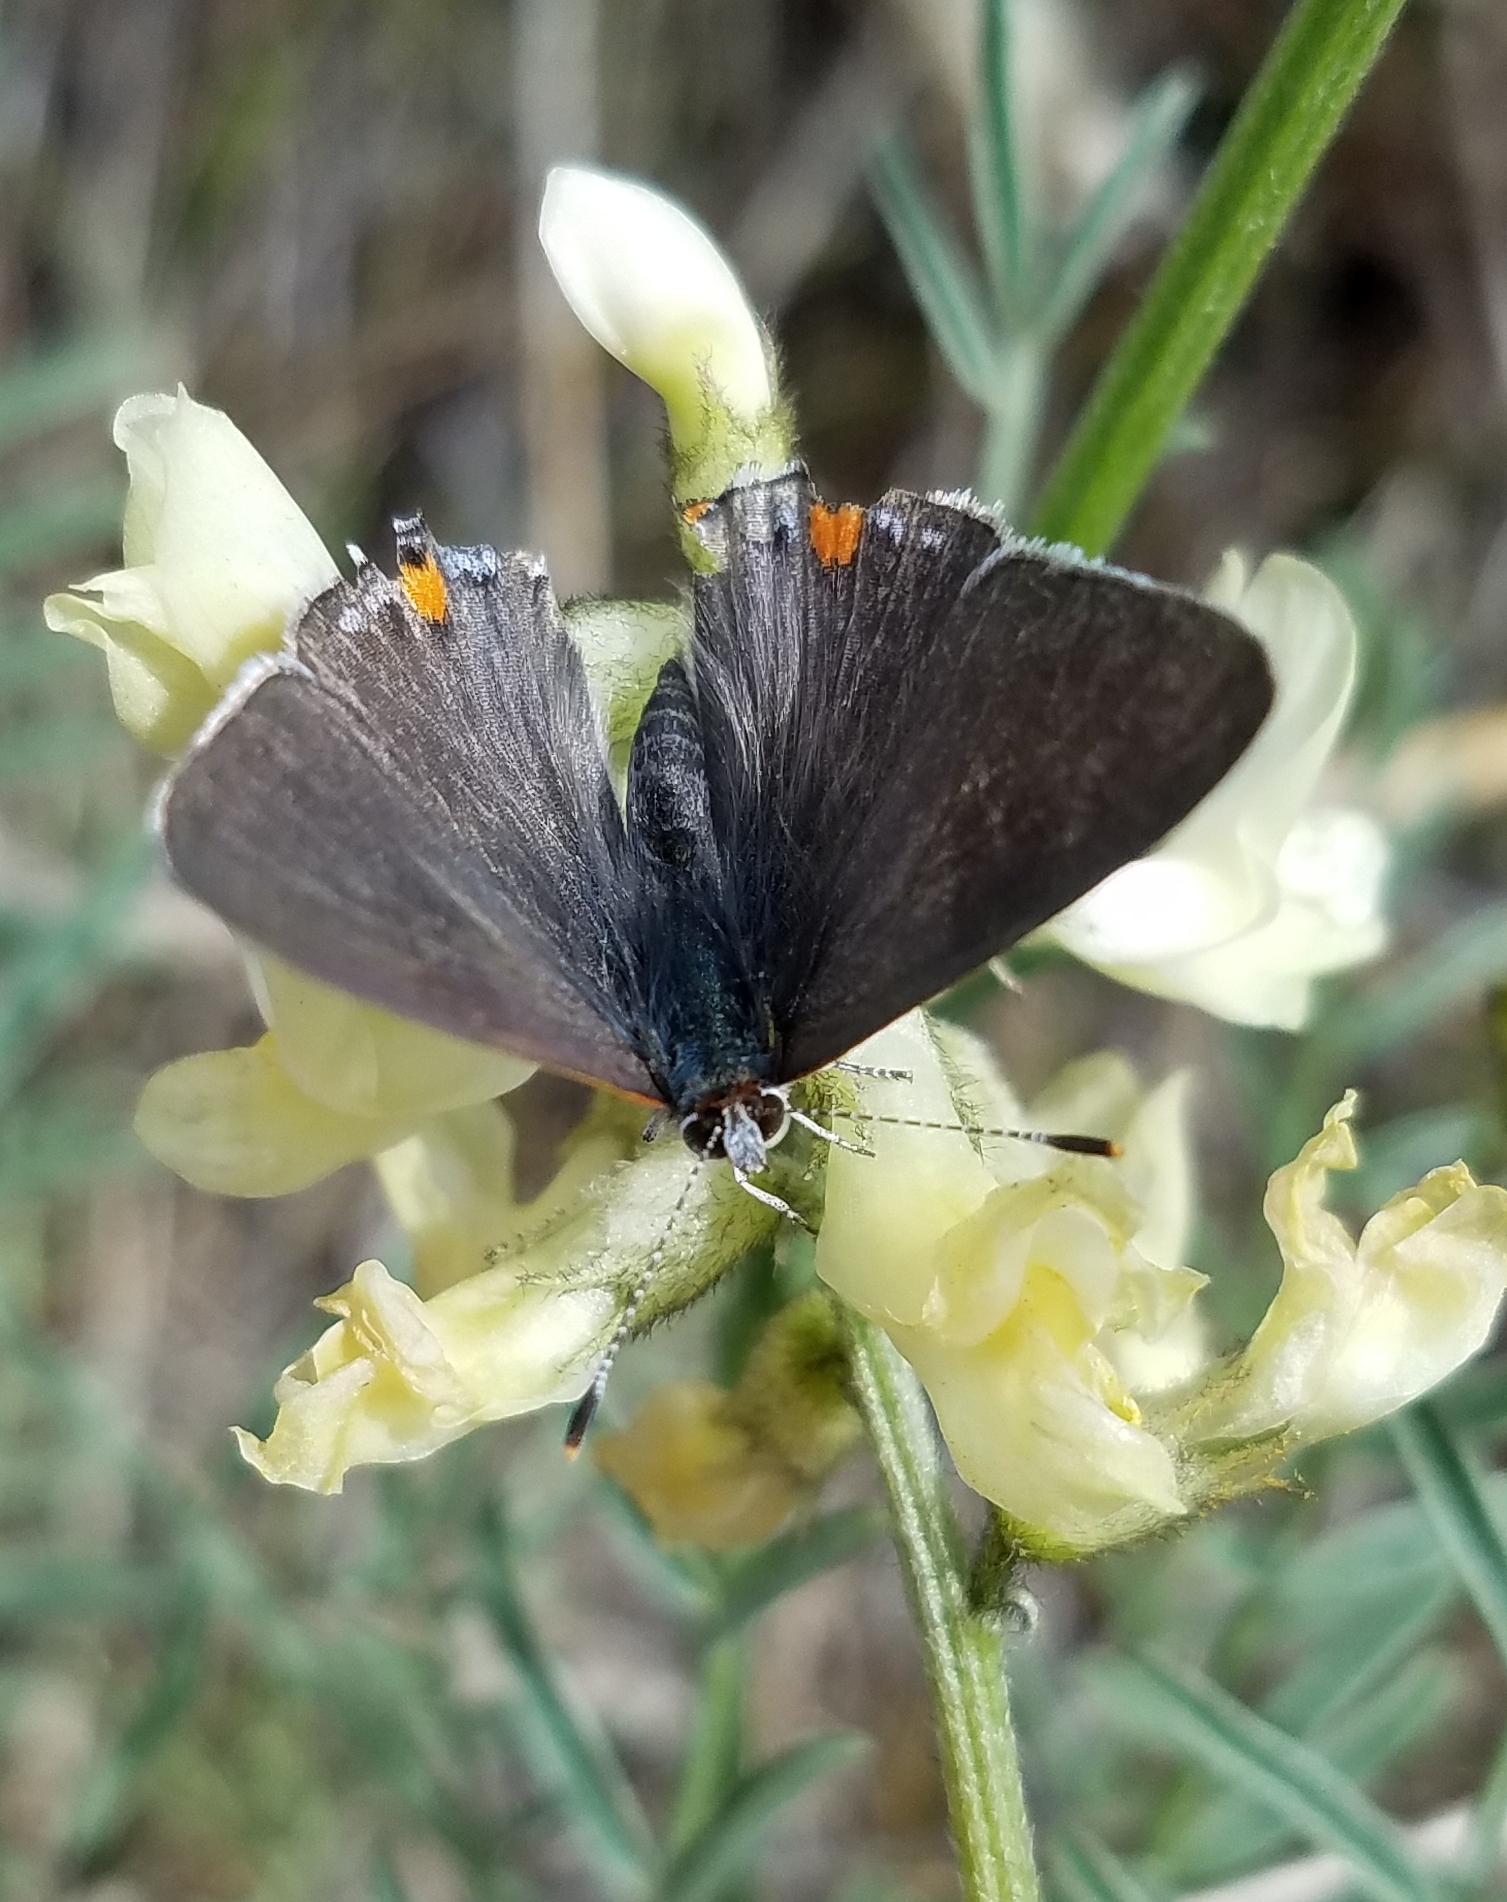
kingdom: Animalia
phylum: Arthropoda
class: Insecta
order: Lepidoptera
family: Lycaenidae
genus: Strymon
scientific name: Strymon melinus
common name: Gray hairstreak
